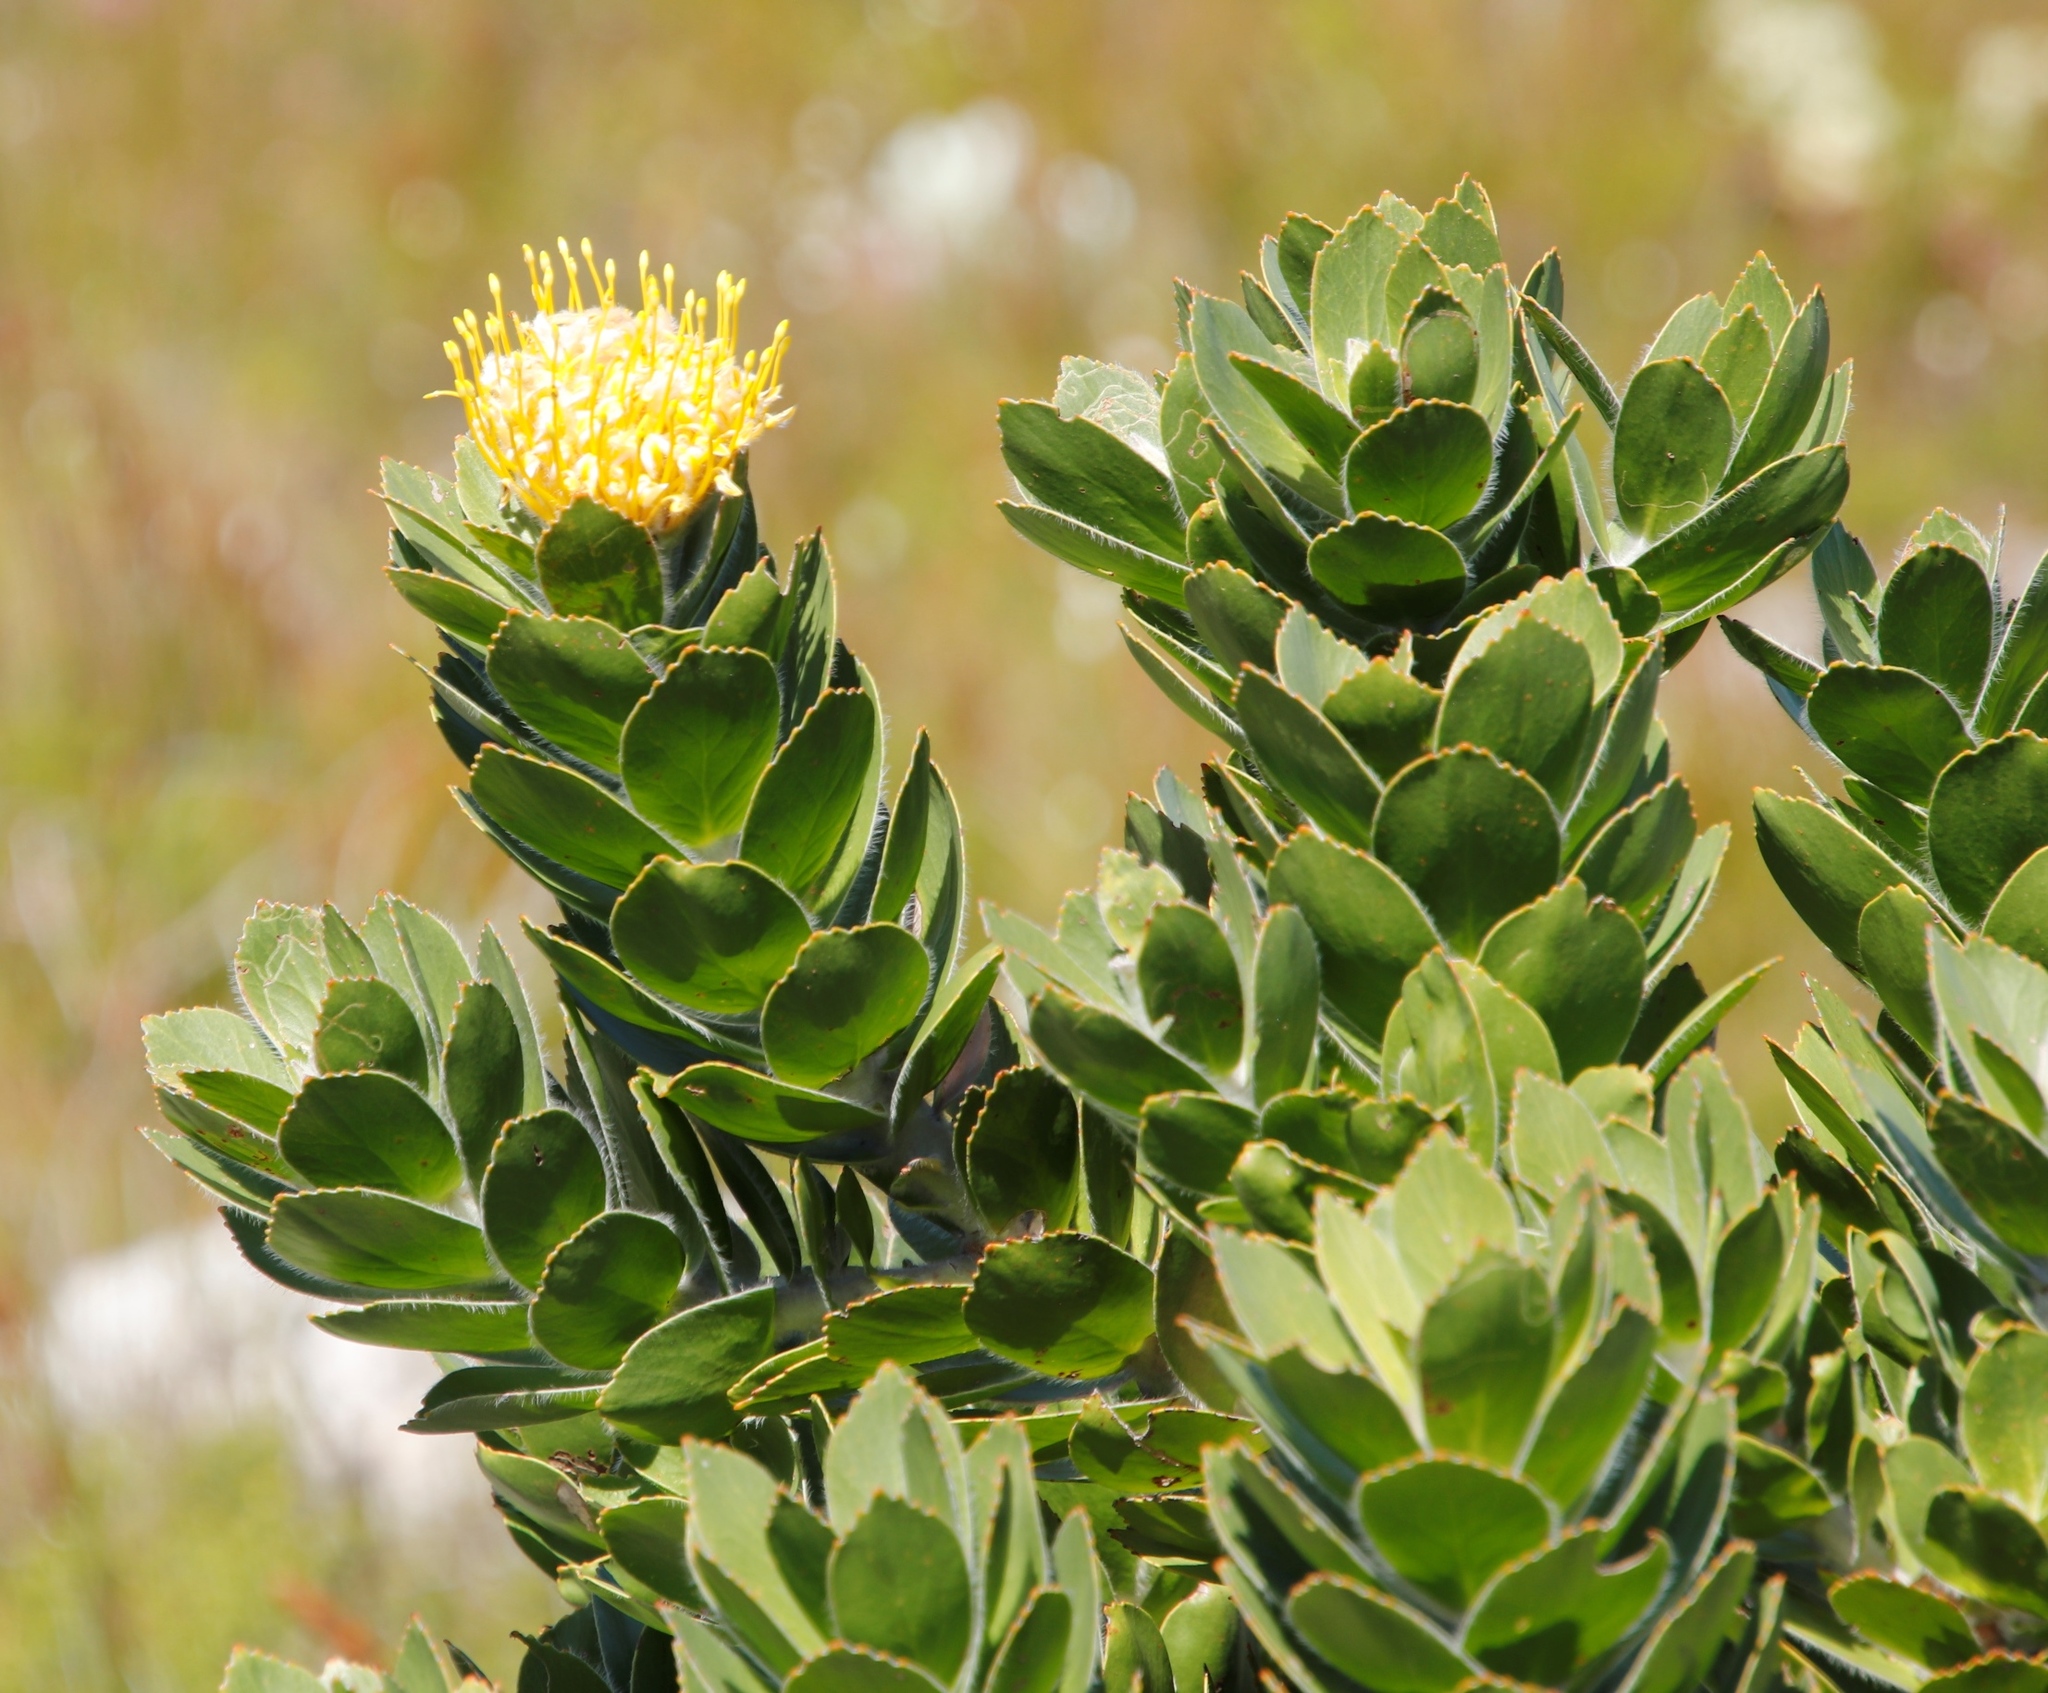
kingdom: Plantae
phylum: Tracheophyta
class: Magnoliopsida
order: Proteales
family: Proteaceae
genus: Leucospermum
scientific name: Leucospermum conocarpodendron
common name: Tree pincushion
